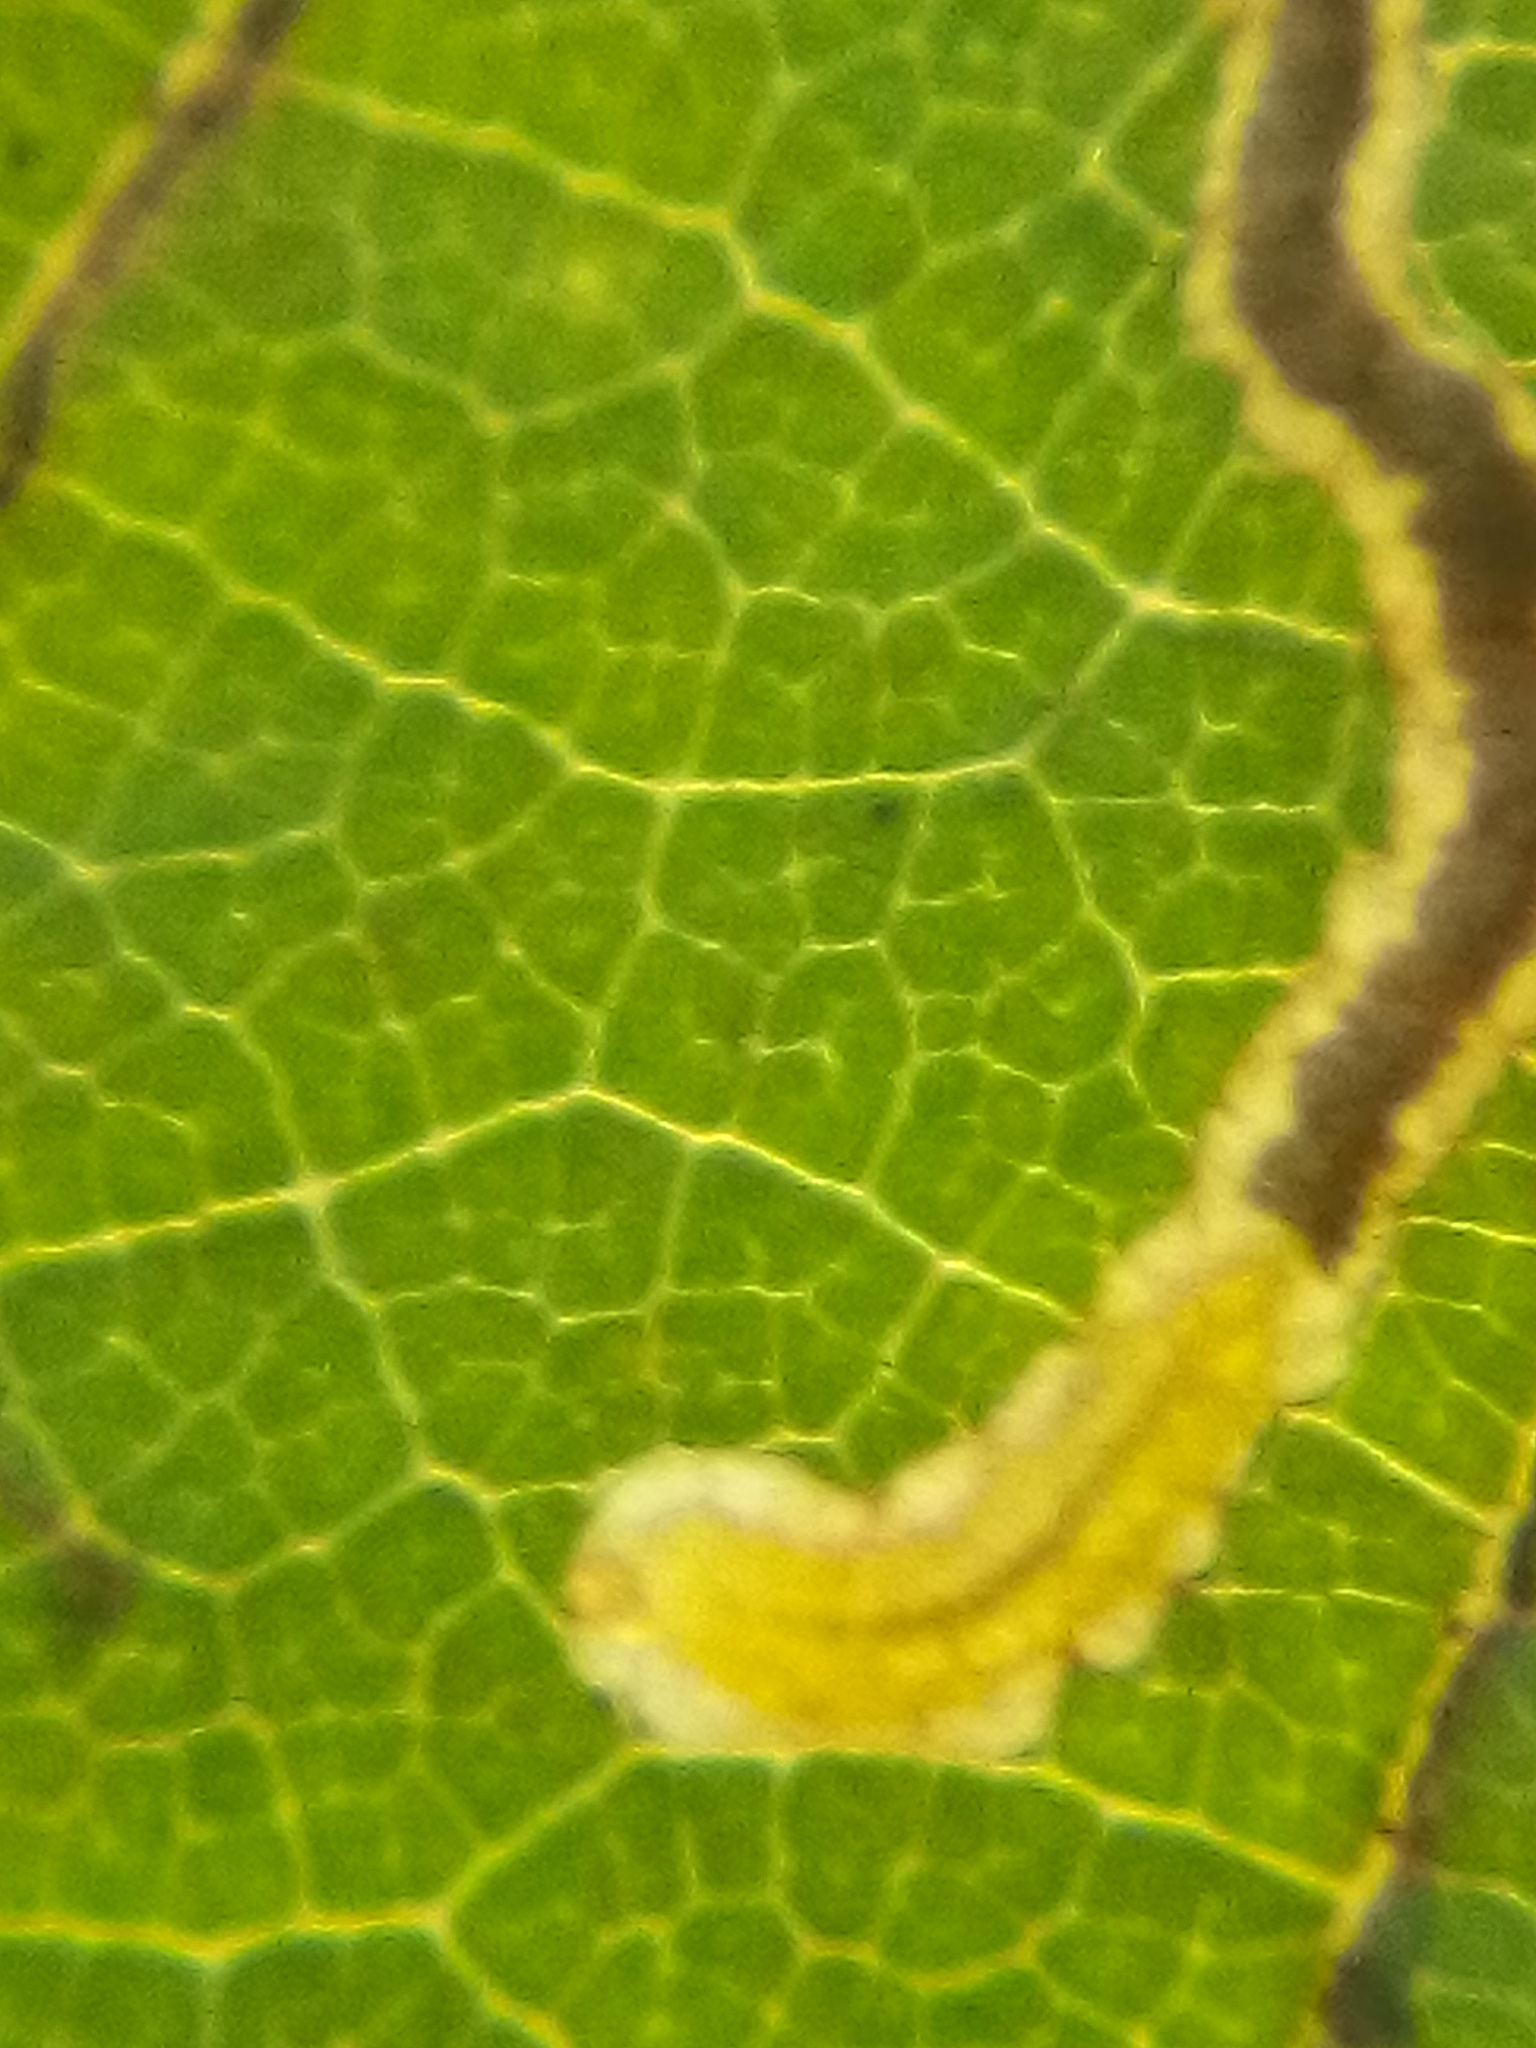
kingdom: Animalia
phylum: Arthropoda
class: Insecta
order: Lepidoptera
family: Nepticulidae
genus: Stigmella
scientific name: Stigmella microtheriella
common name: Nut-tree pigmy
